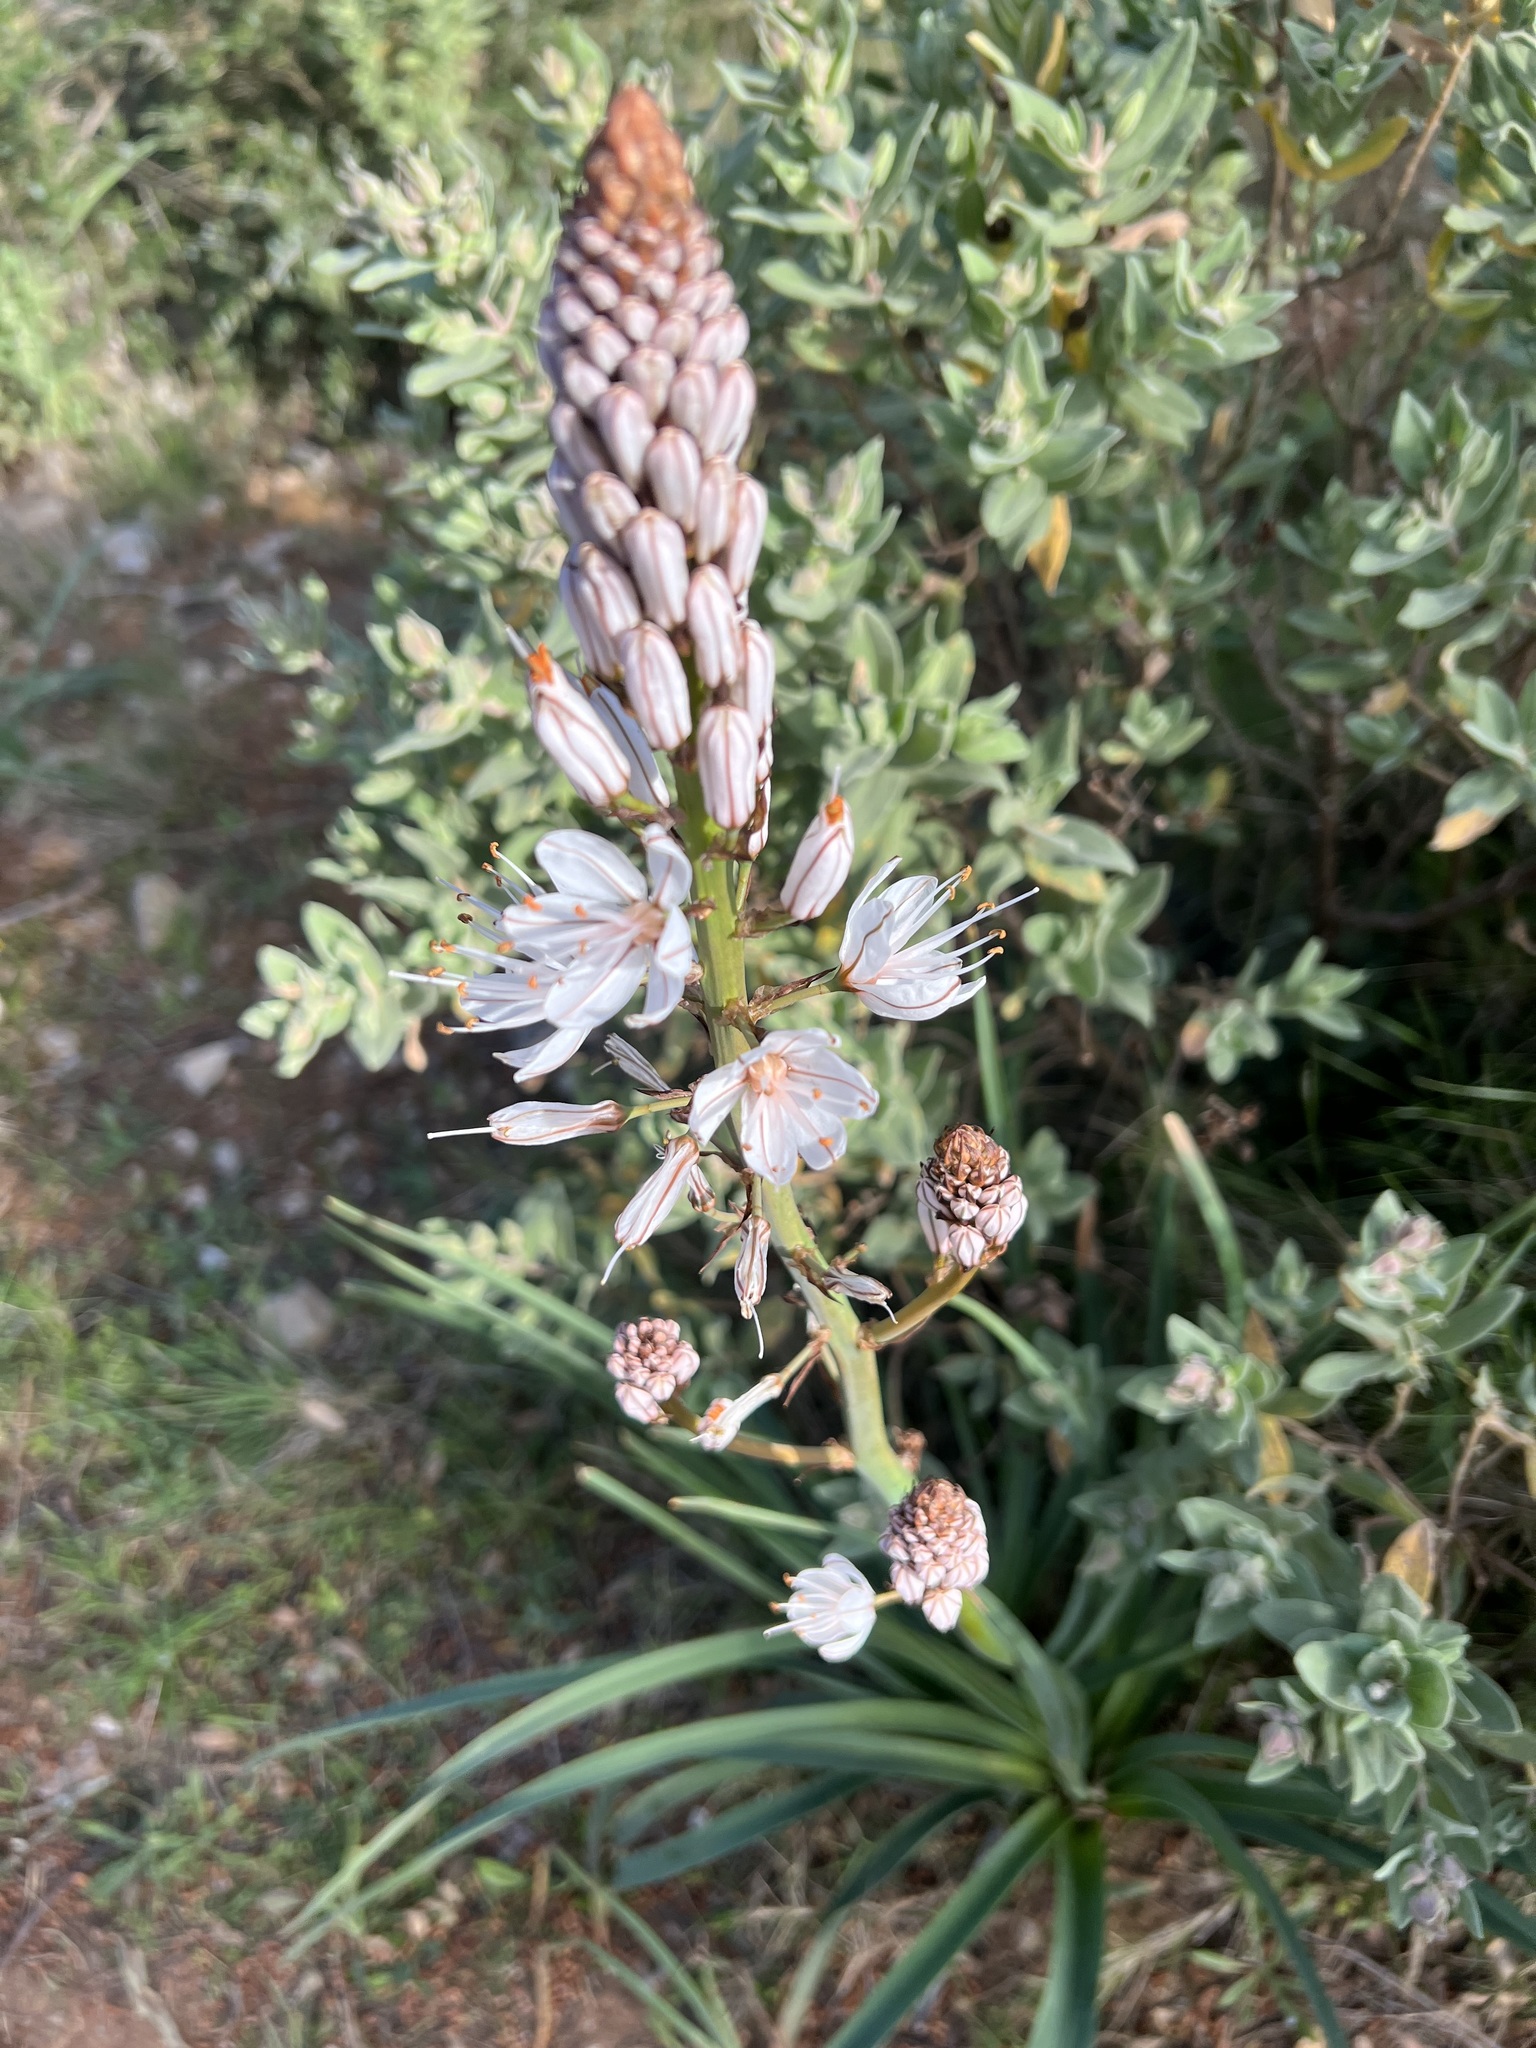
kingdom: Plantae
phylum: Tracheophyta
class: Liliopsida
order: Asparagales
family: Asphodelaceae
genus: Asphodelus
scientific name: Asphodelus cerasifer
